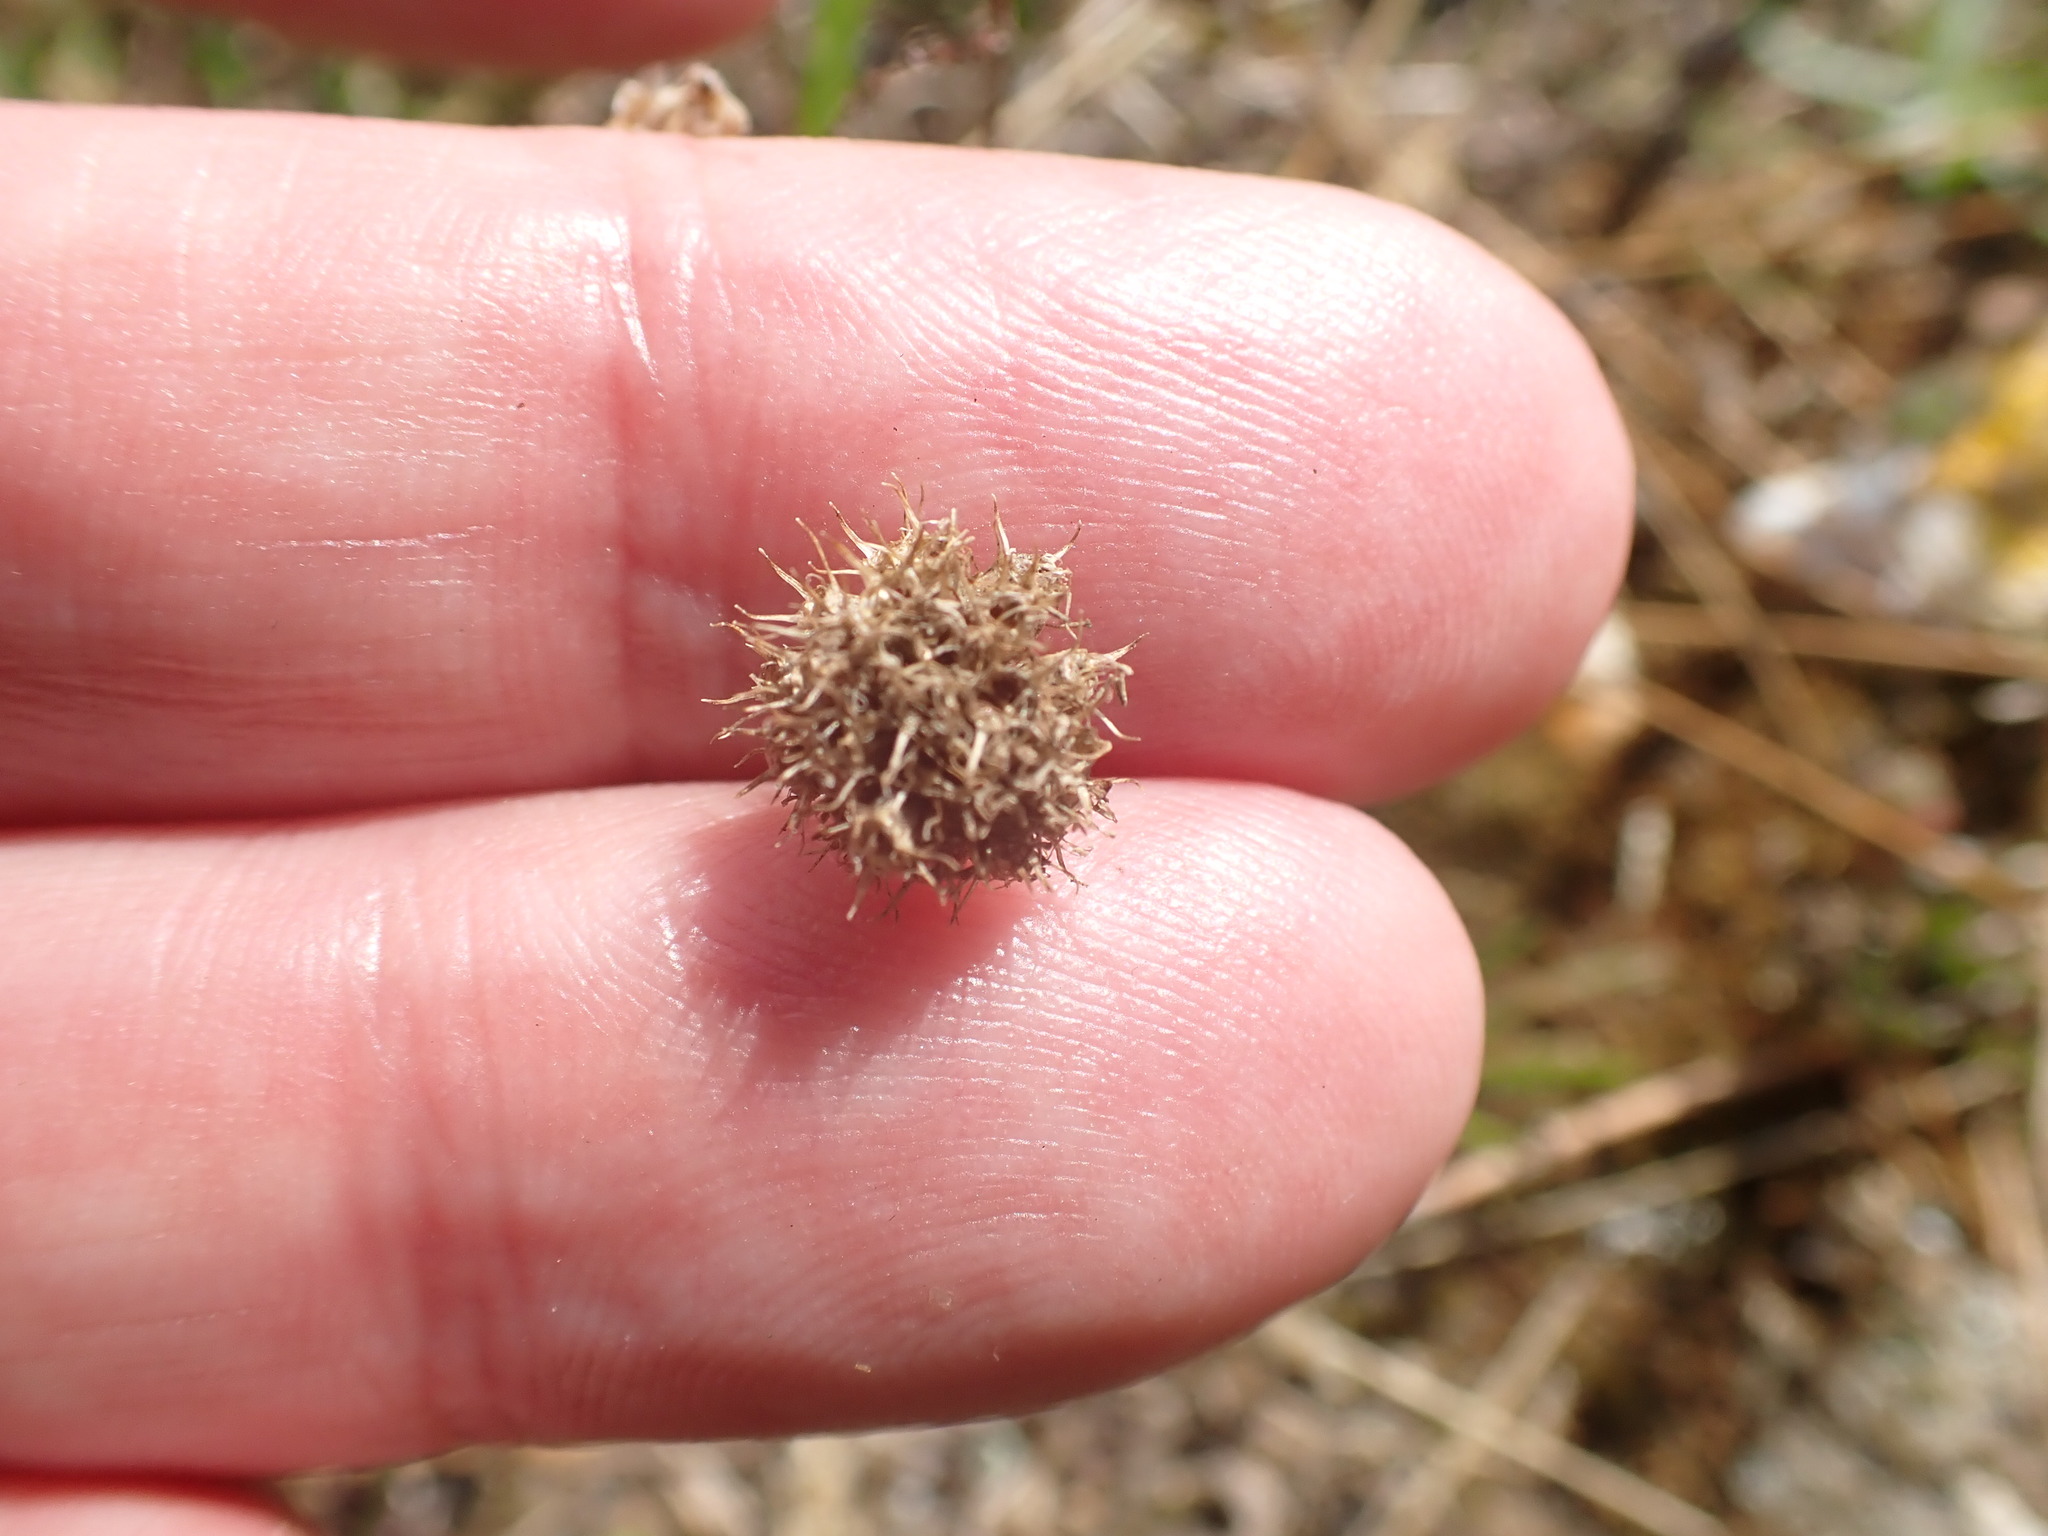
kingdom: Plantae
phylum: Tracheophyta
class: Magnoliopsida
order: Asterales
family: Campanulaceae
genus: Jasione
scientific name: Jasione montana
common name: Sheep's-bit
